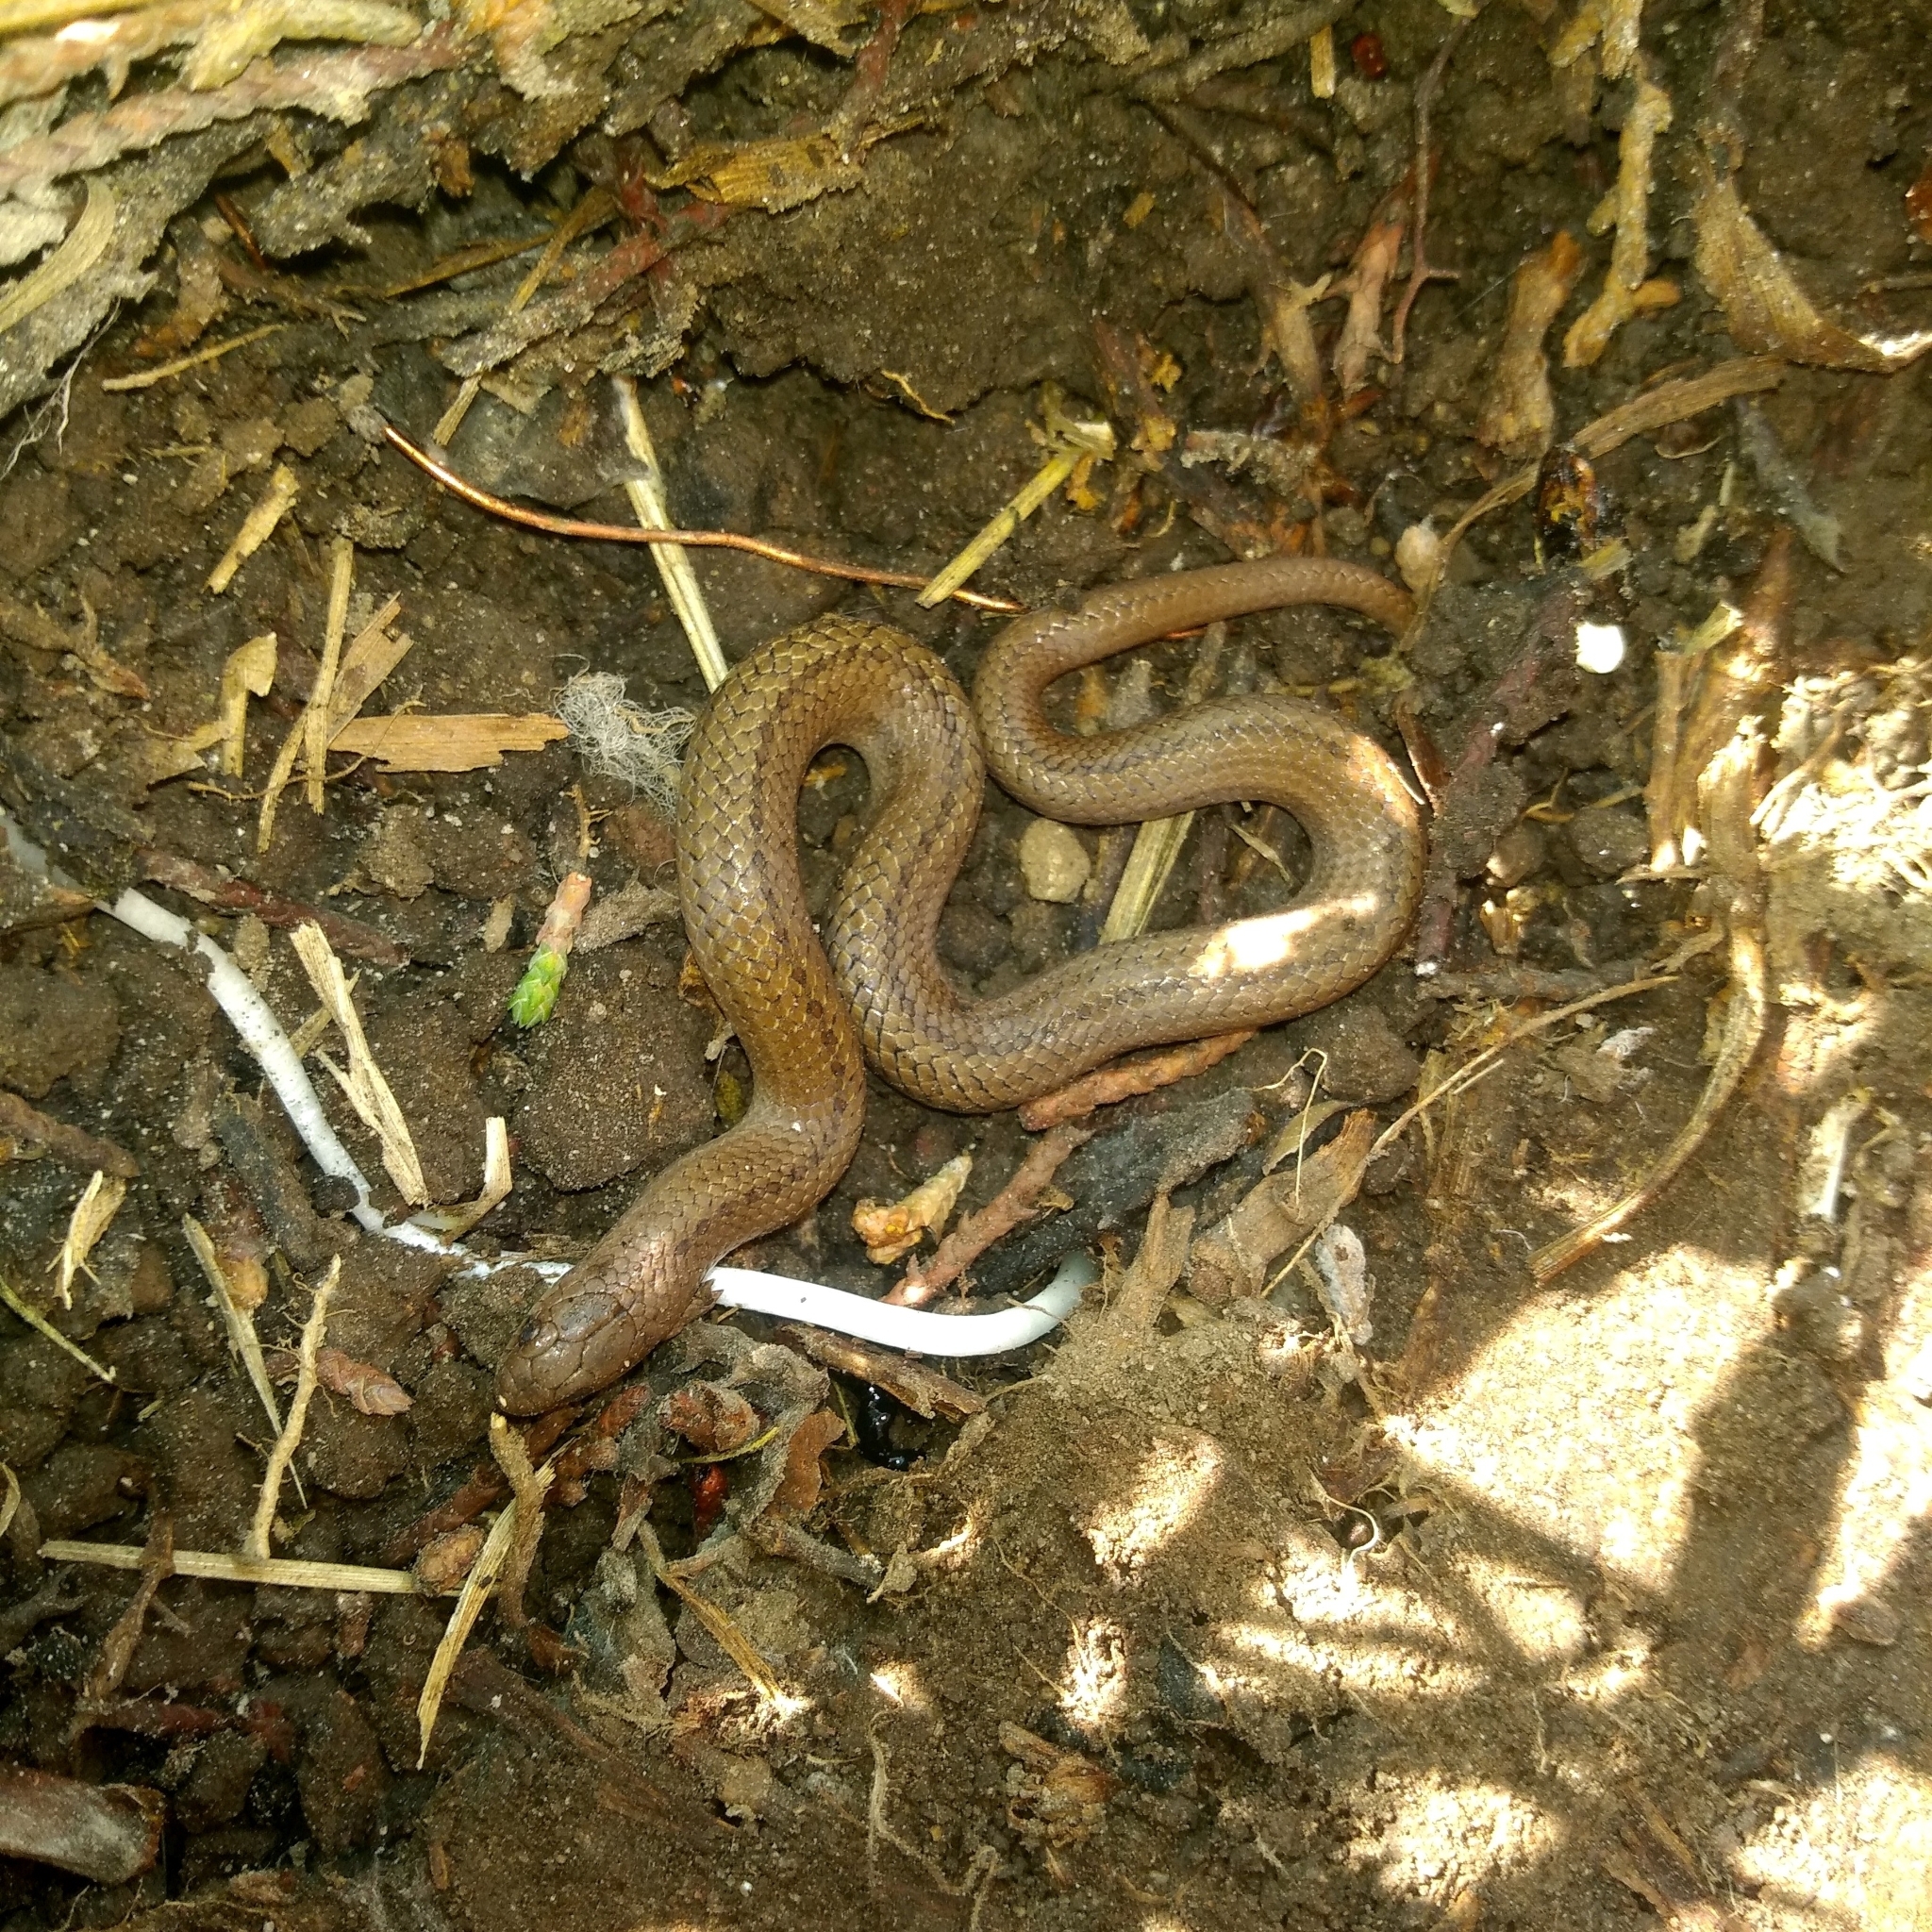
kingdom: Animalia
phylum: Chordata
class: Squamata
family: Colubridae
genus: Conopsis
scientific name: Conopsis lineata
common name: Lined tolucan earthsnake
